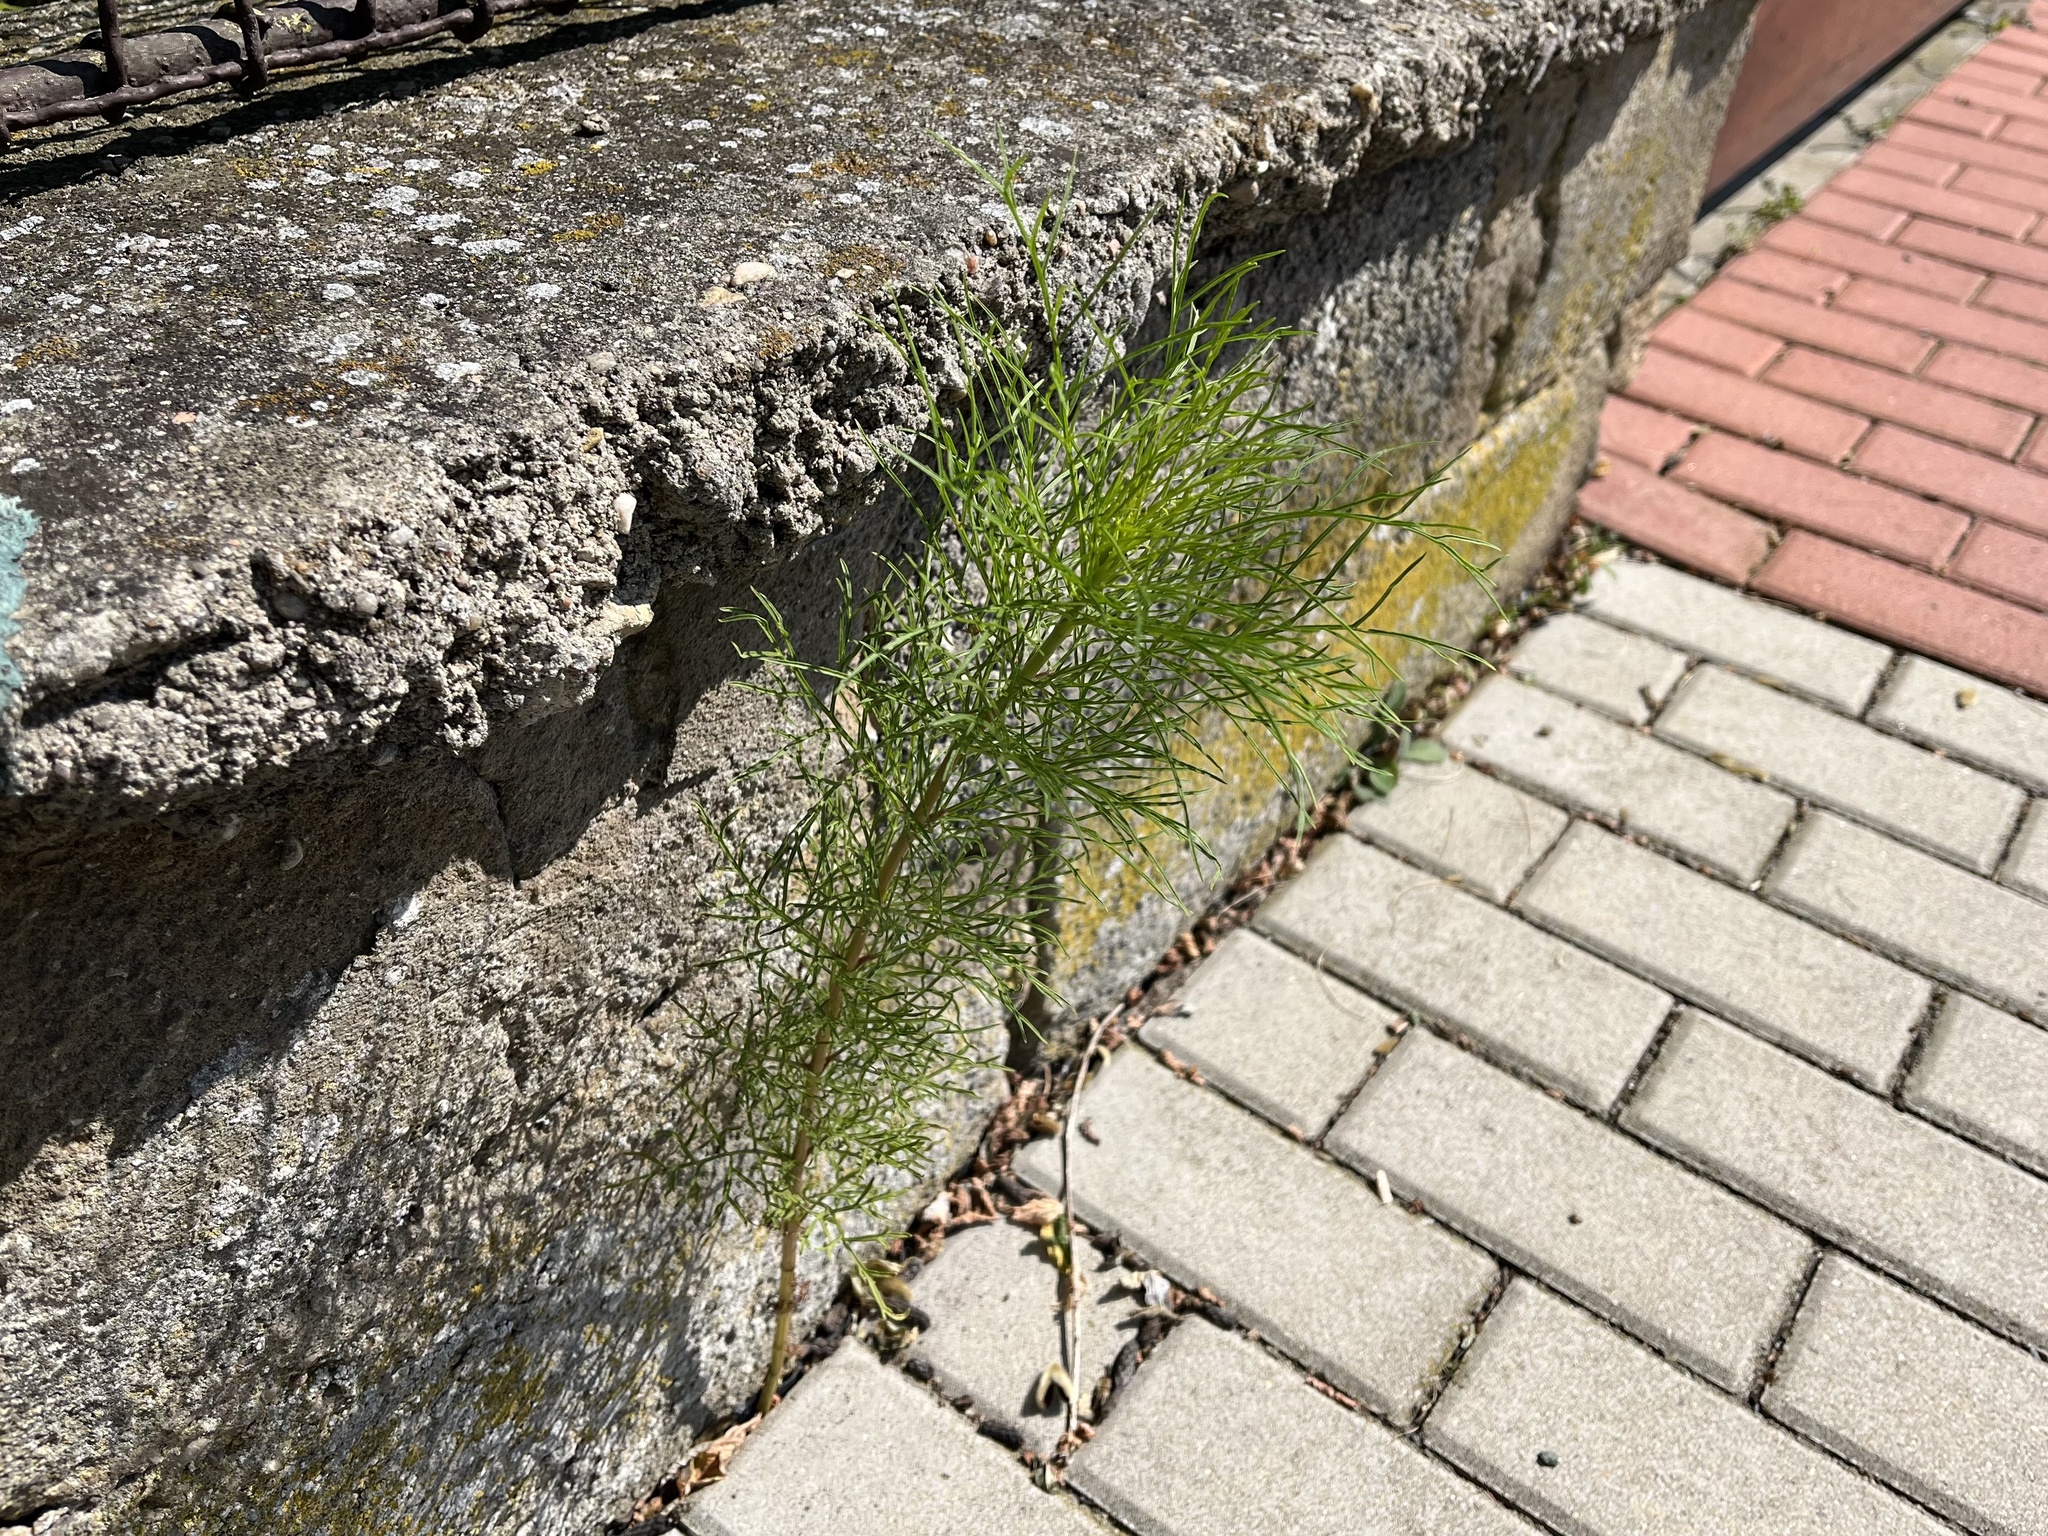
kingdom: Plantae
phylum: Tracheophyta
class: Magnoliopsida
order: Asterales
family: Asteraceae
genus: Cosmos
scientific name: Cosmos bipinnatus
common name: Garden cosmos
